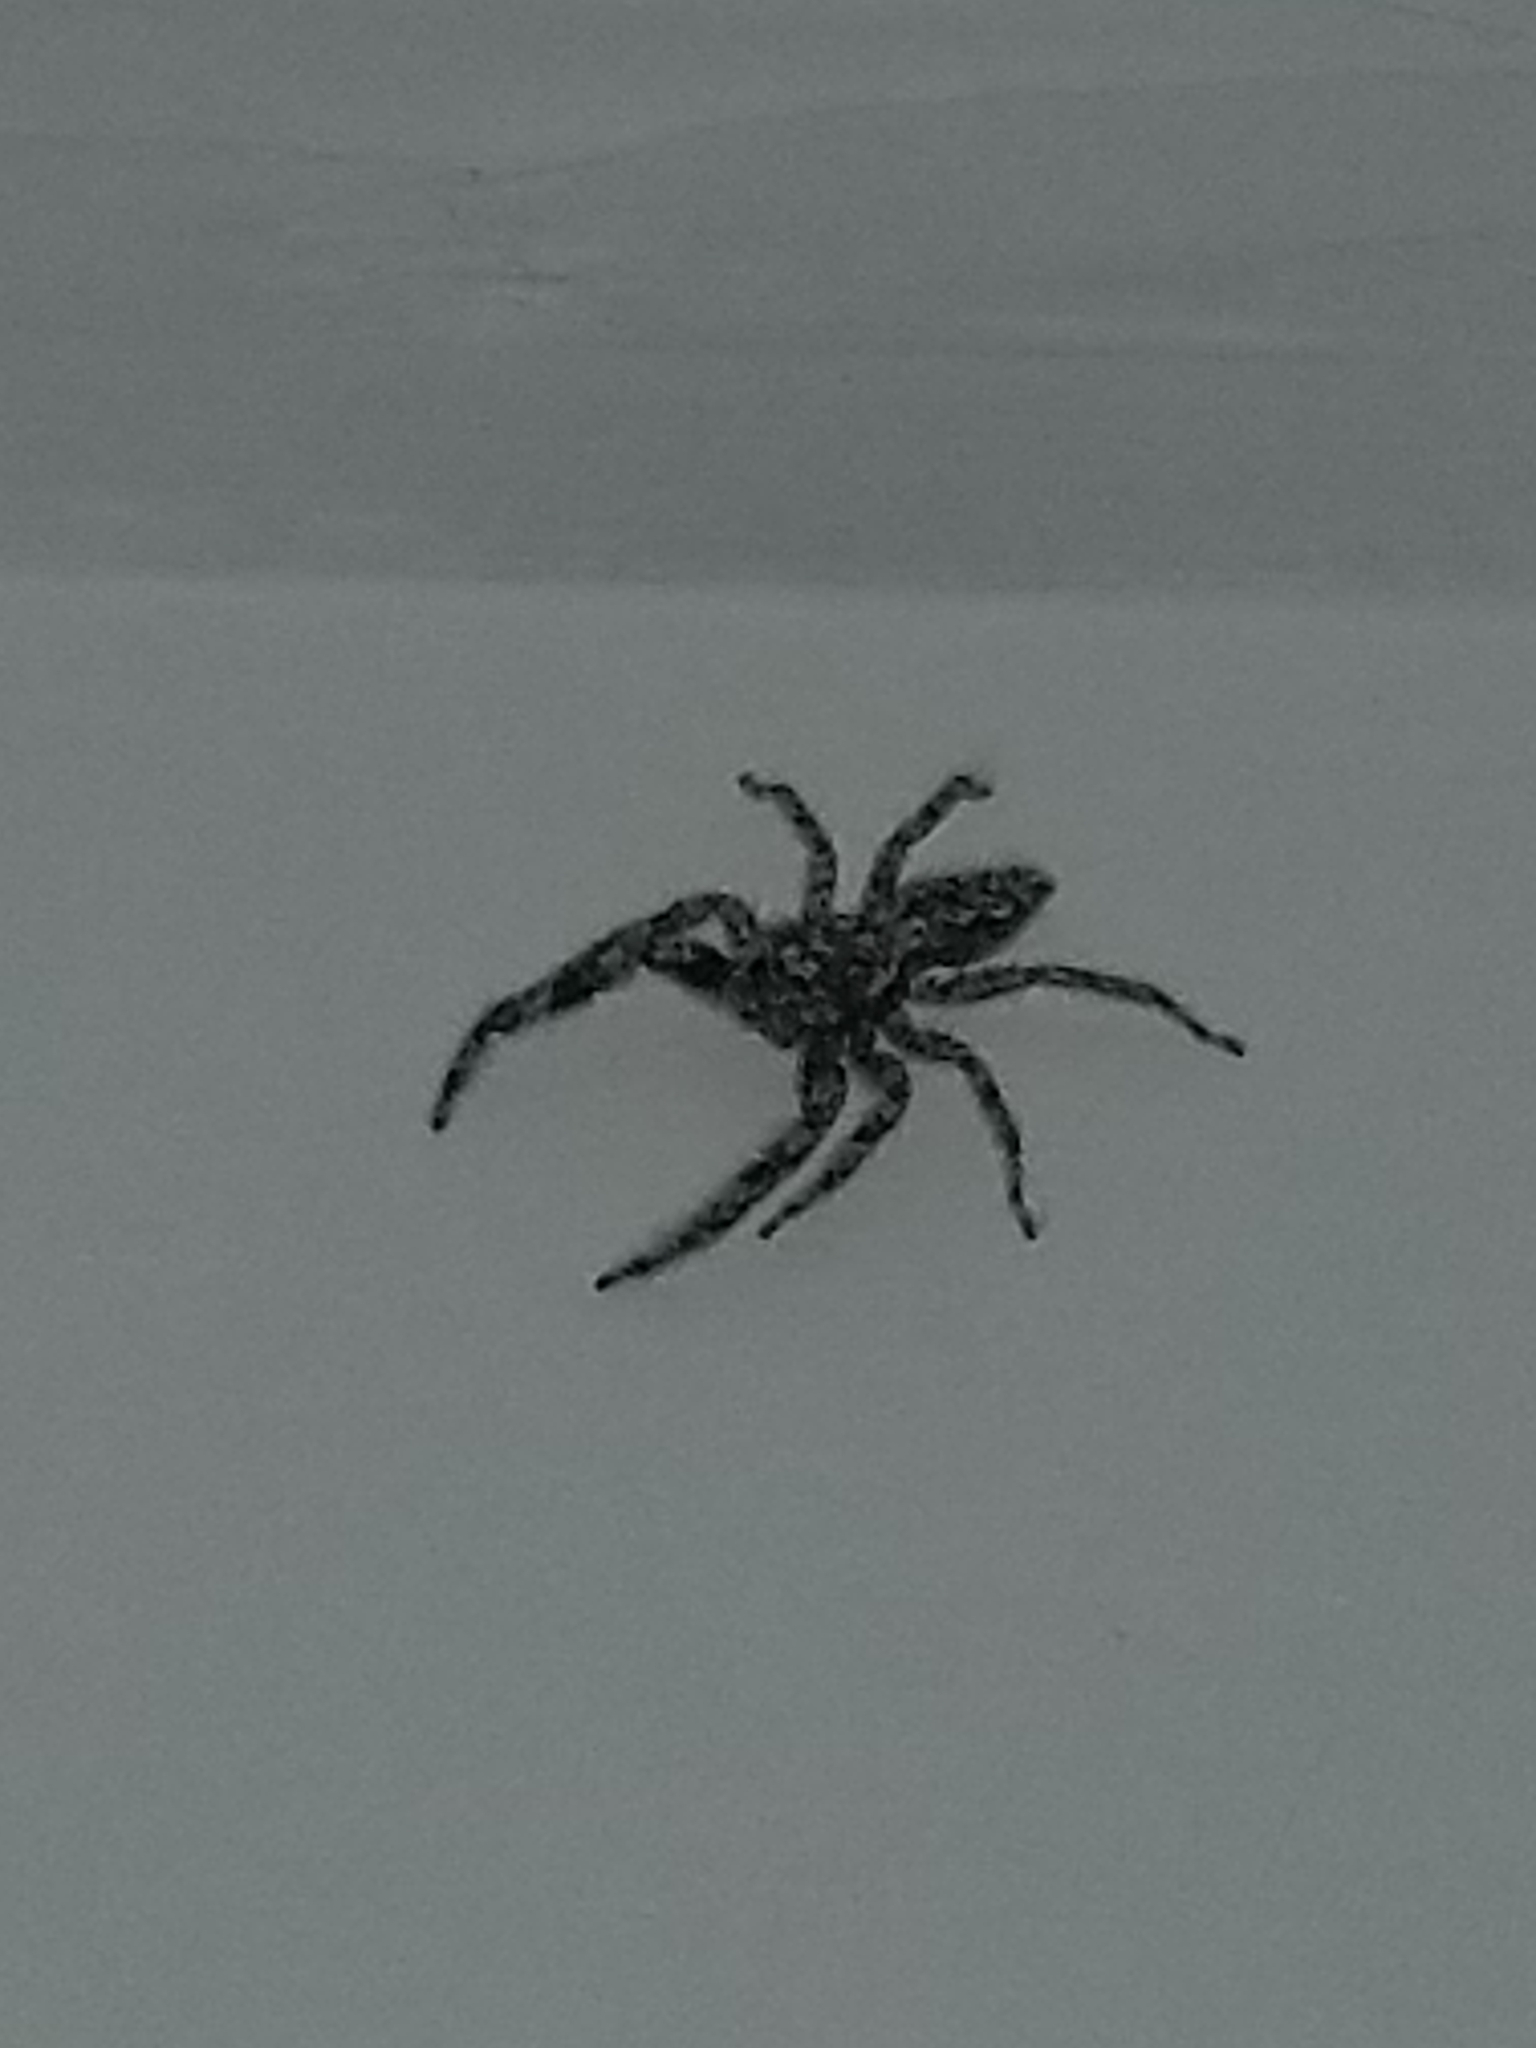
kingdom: Animalia
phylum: Arthropoda
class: Arachnida
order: Araneae
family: Salticidae
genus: Platycryptus
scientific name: Platycryptus undatus
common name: Tan jumping spider
